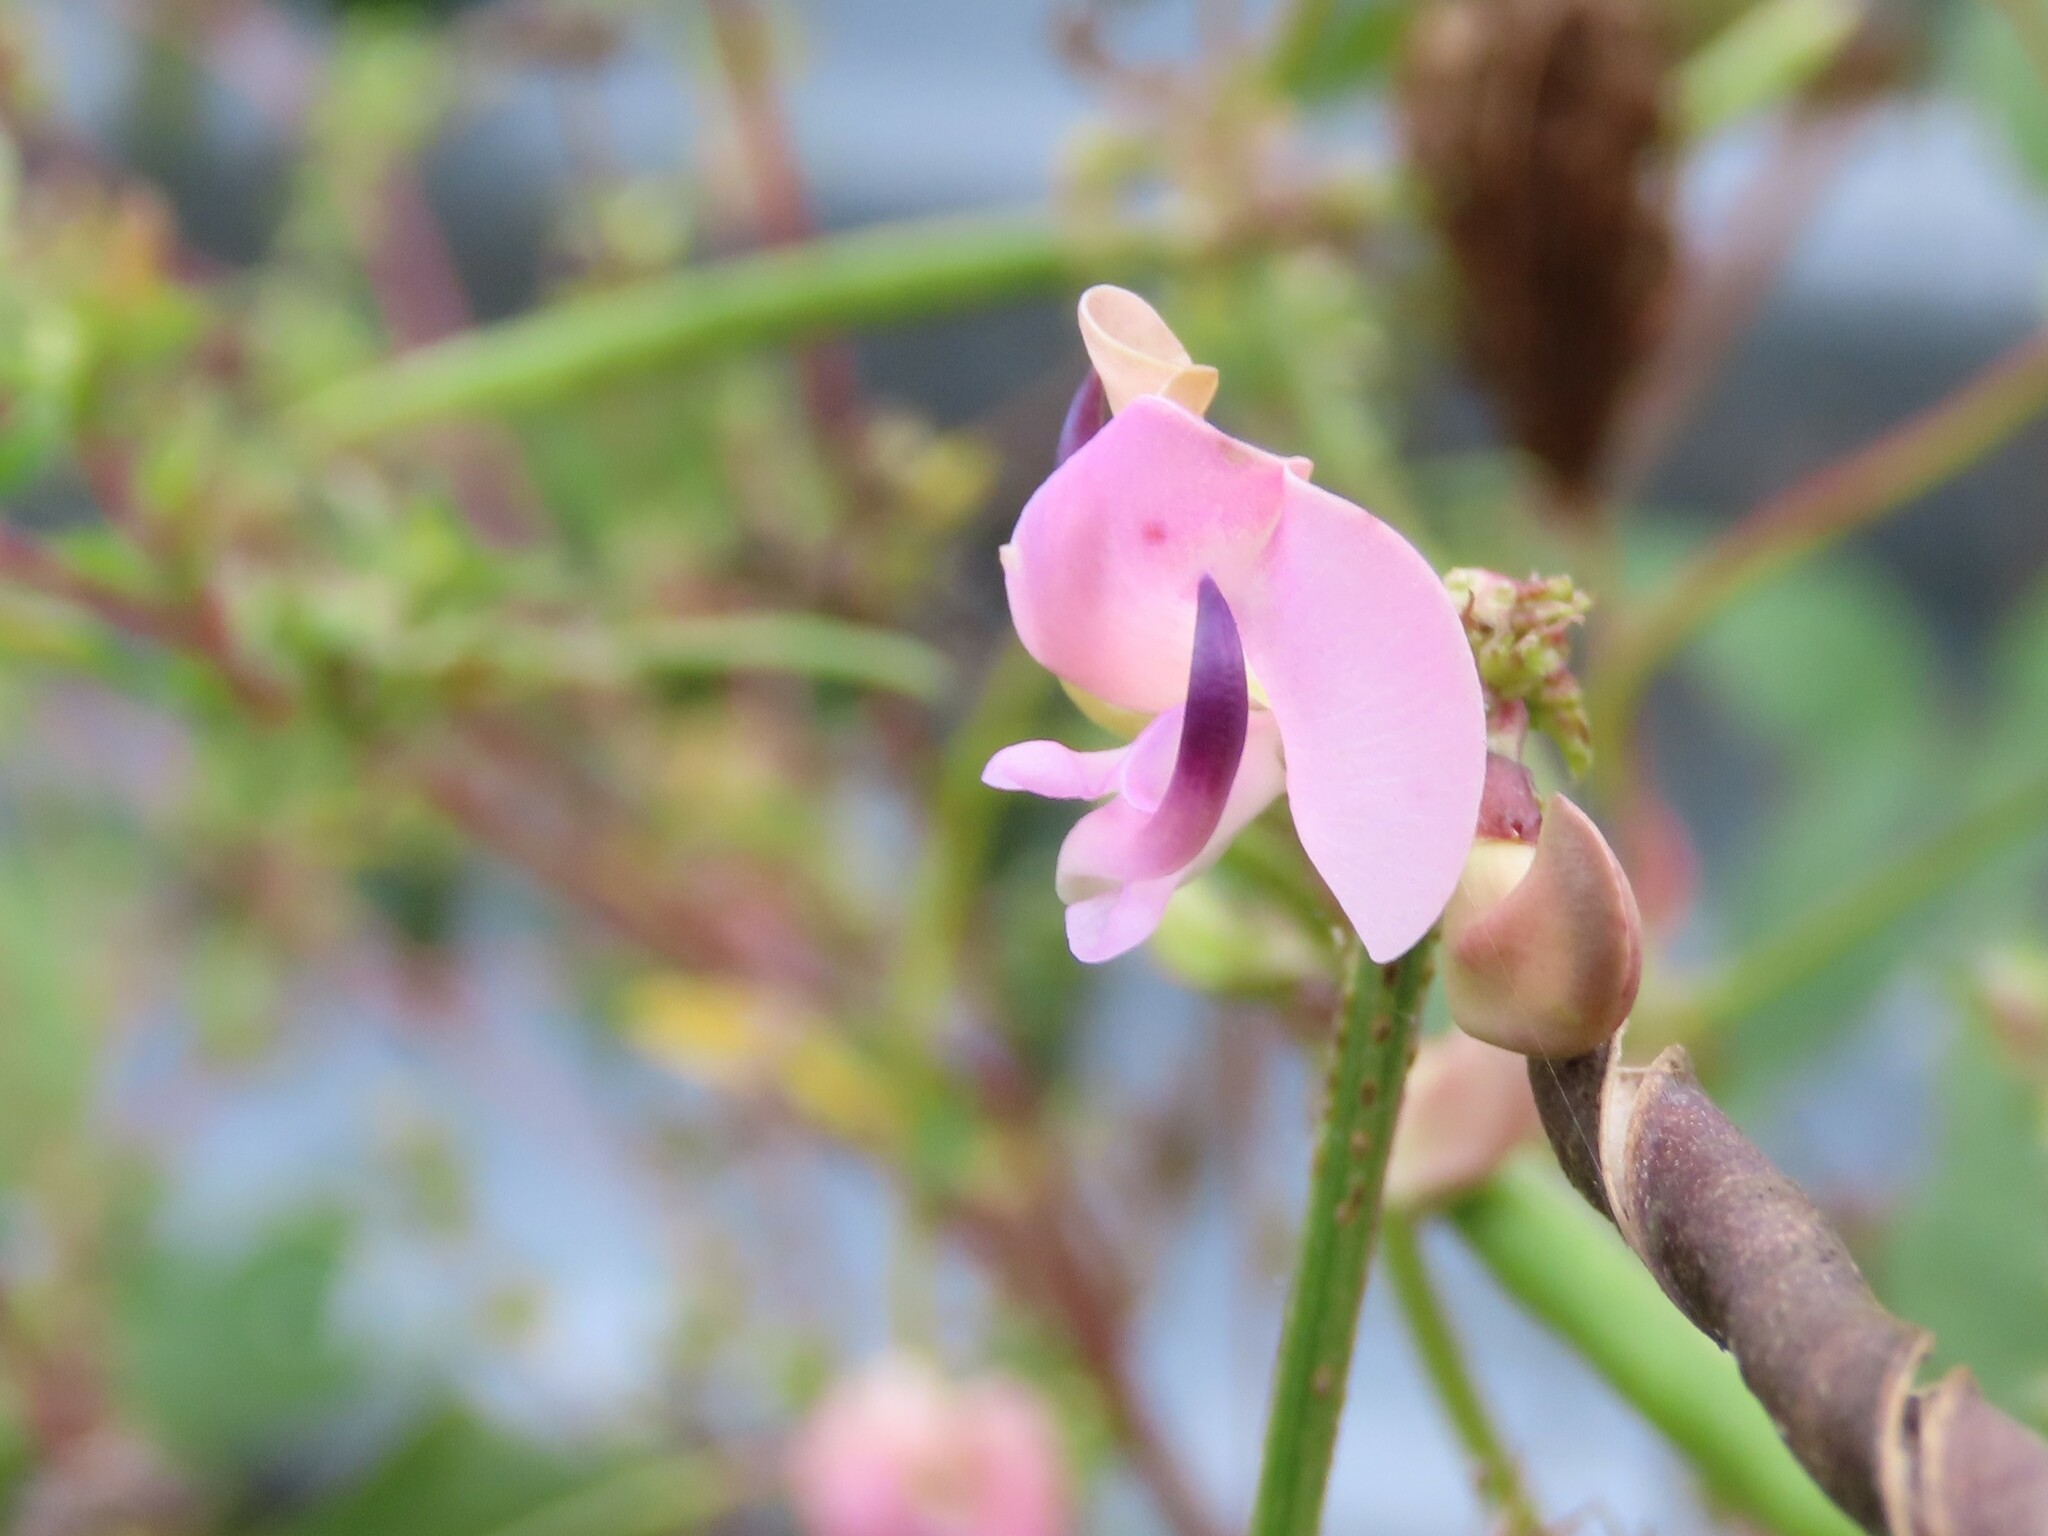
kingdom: Plantae
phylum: Tracheophyta
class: Magnoliopsida
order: Fabales
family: Fabaceae
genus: Strophostyles
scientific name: Strophostyles helvola
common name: Trailing wild bean
